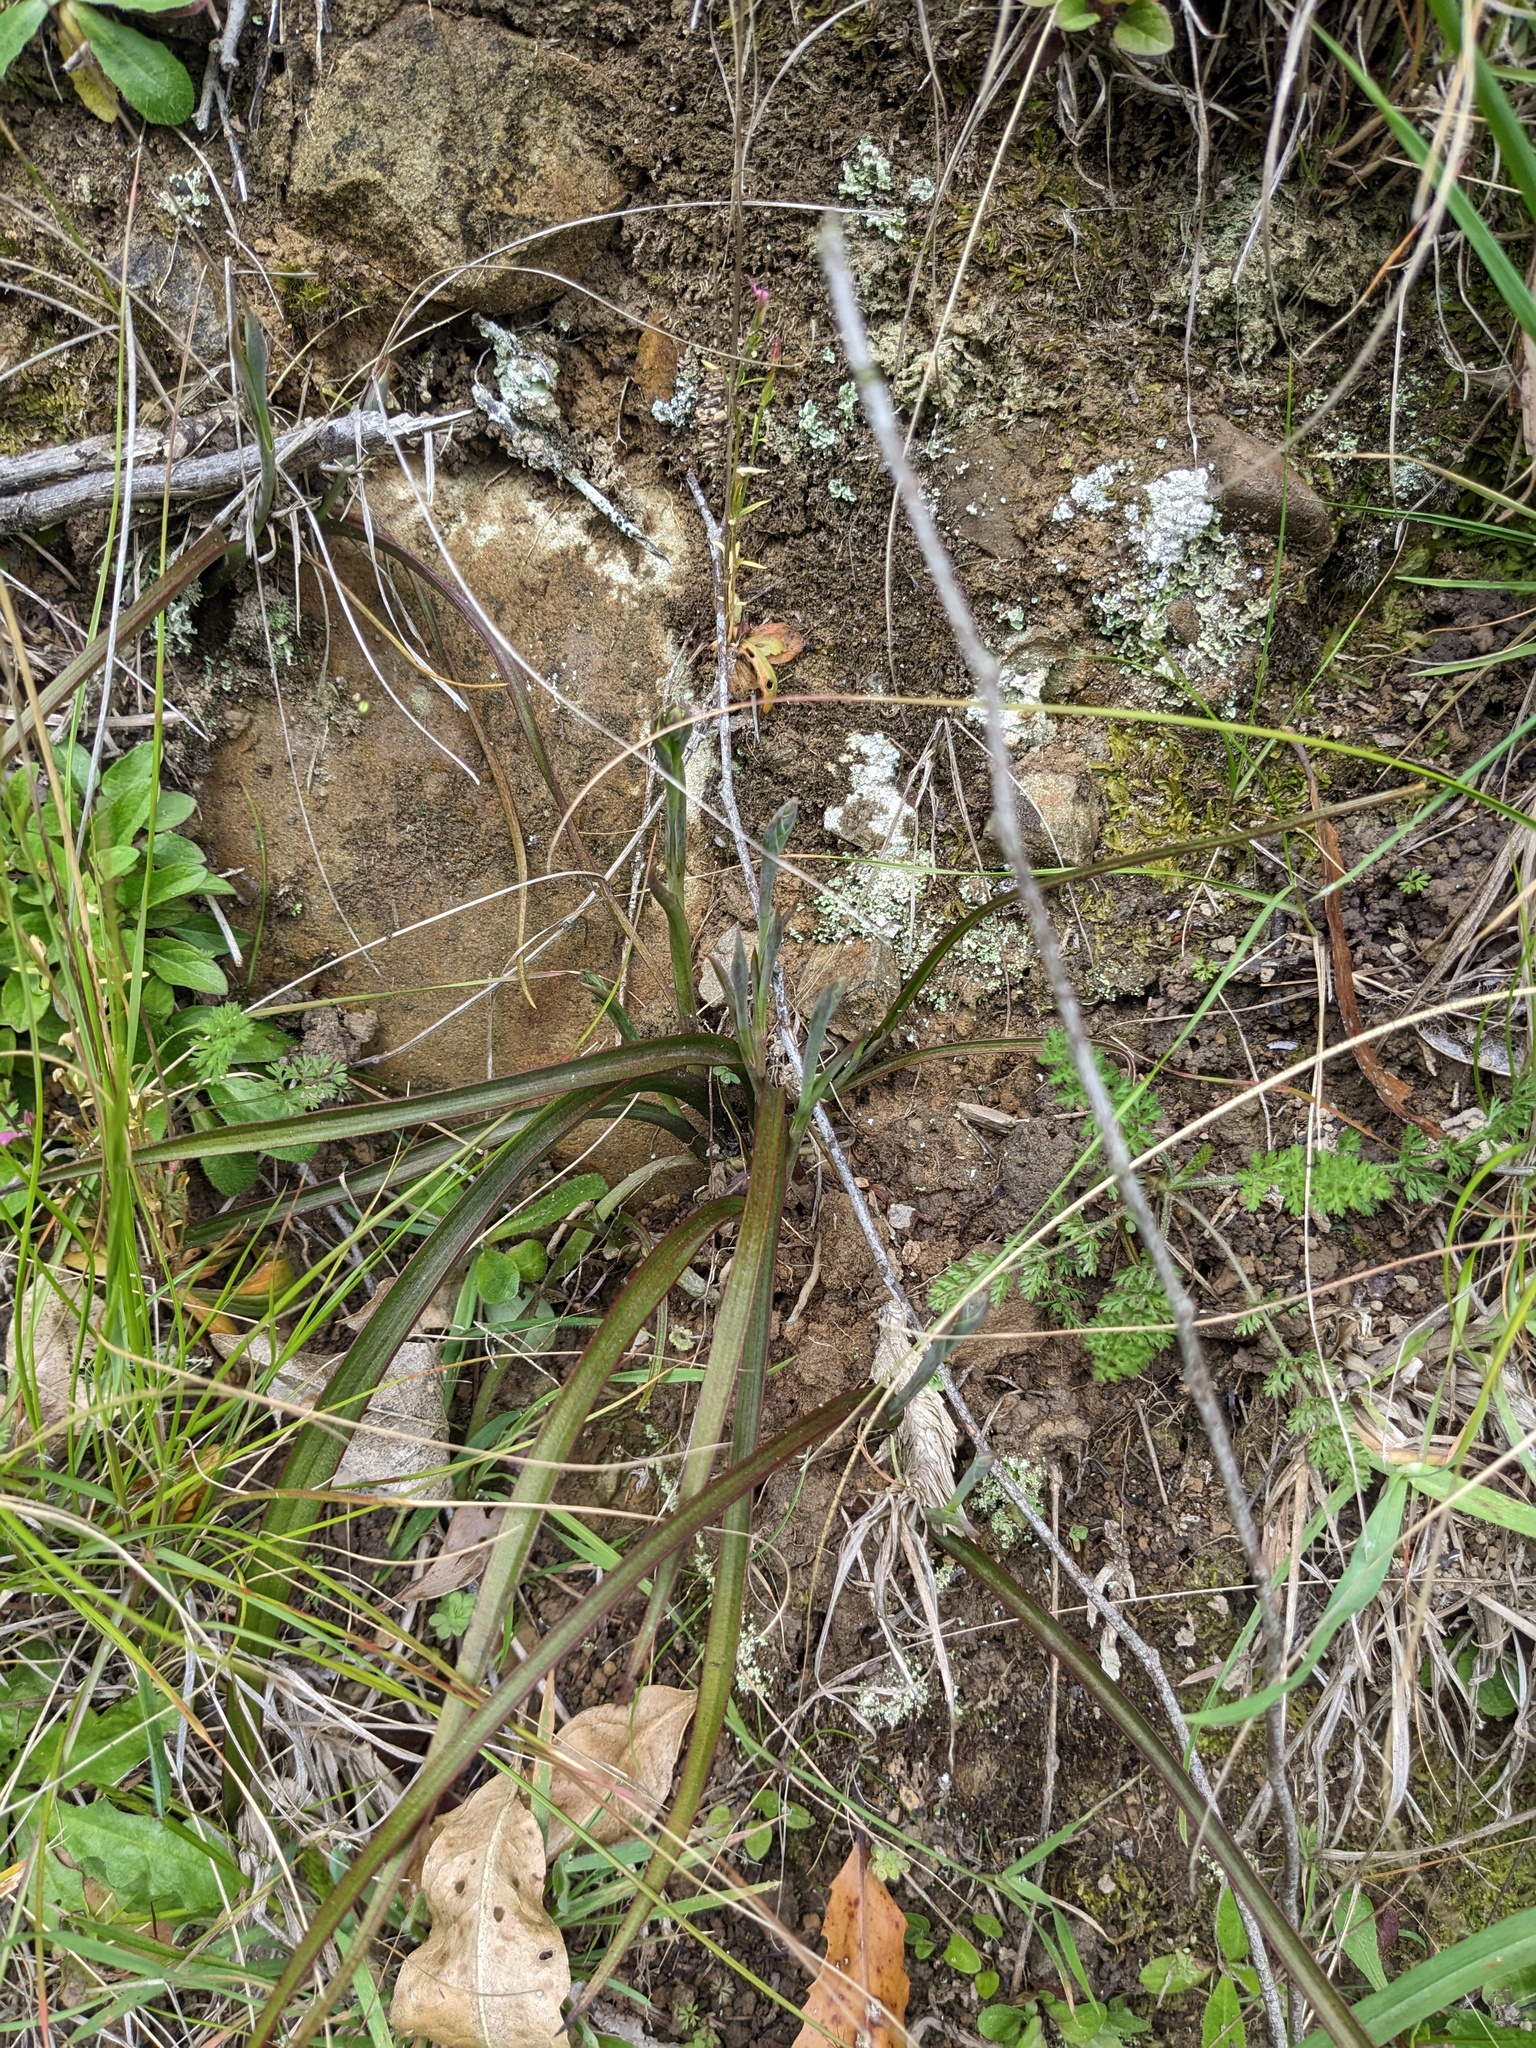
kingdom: Plantae
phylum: Tracheophyta
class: Liliopsida
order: Asparagales
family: Orchidaceae
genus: Thelymitra
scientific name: Thelymitra longifolia
